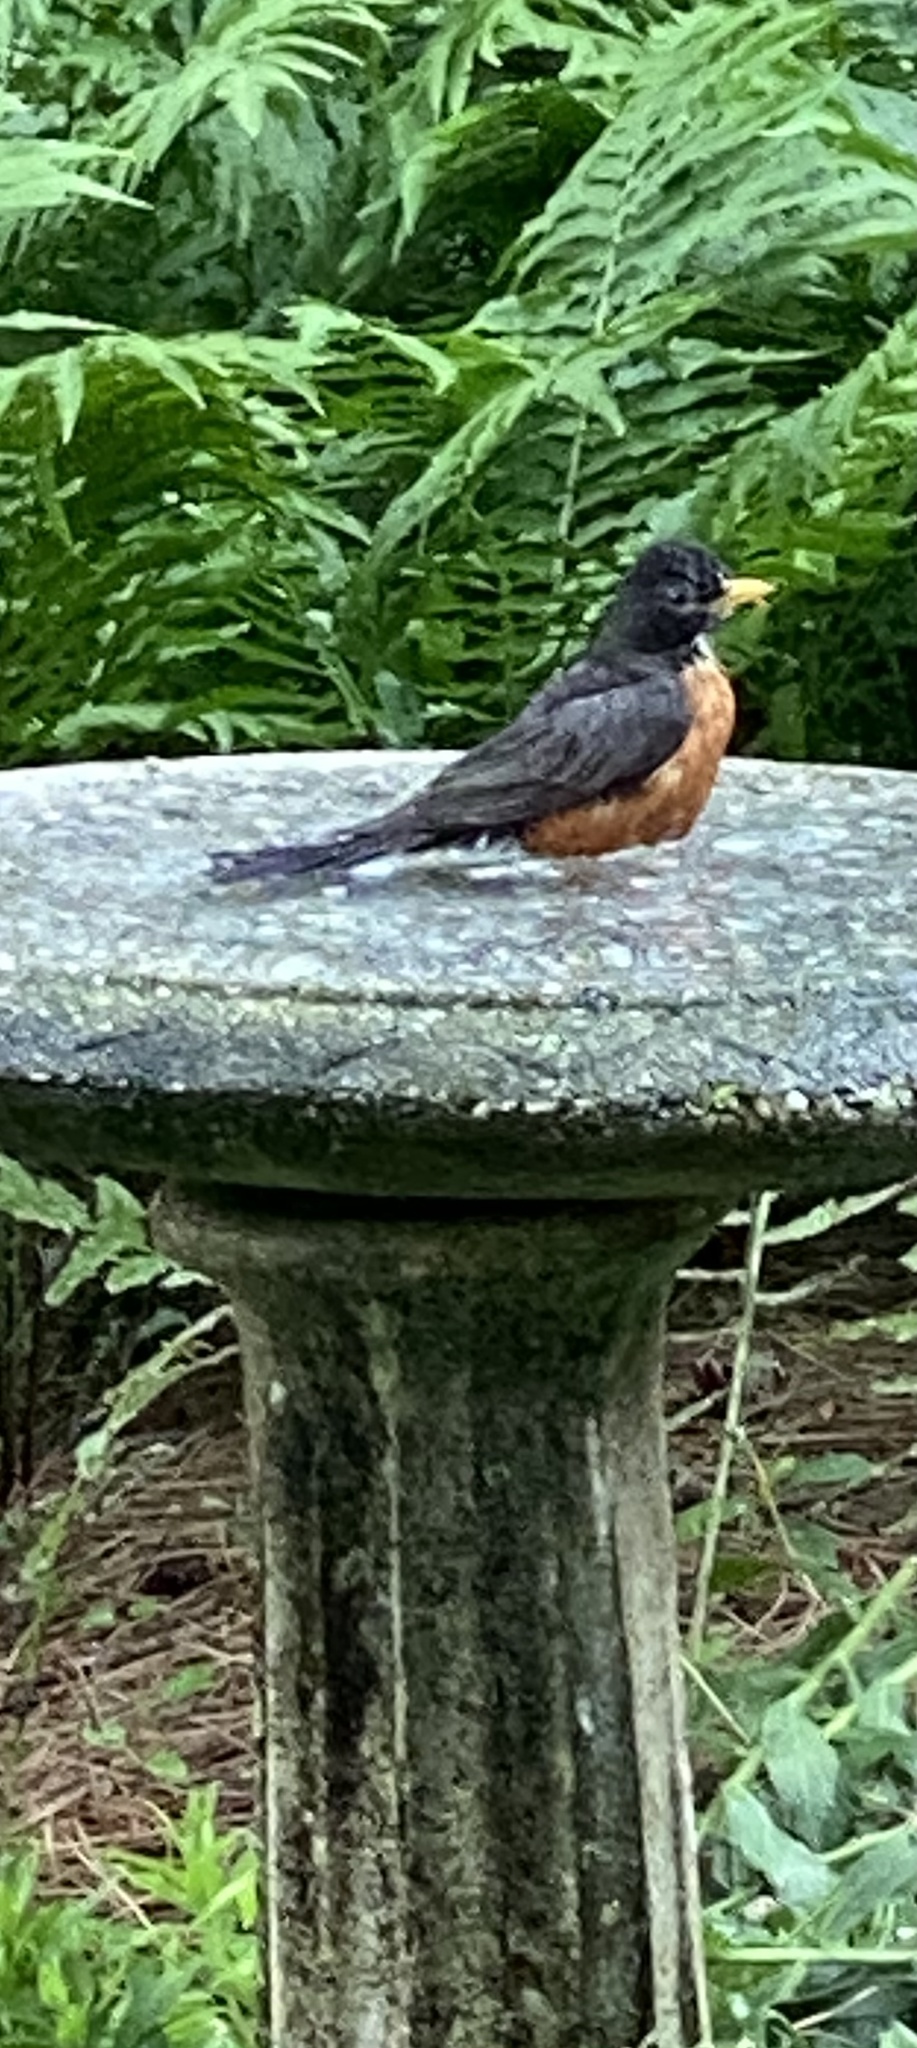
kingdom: Animalia
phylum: Chordata
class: Aves
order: Passeriformes
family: Turdidae
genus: Turdus
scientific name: Turdus migratorius
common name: American robin
